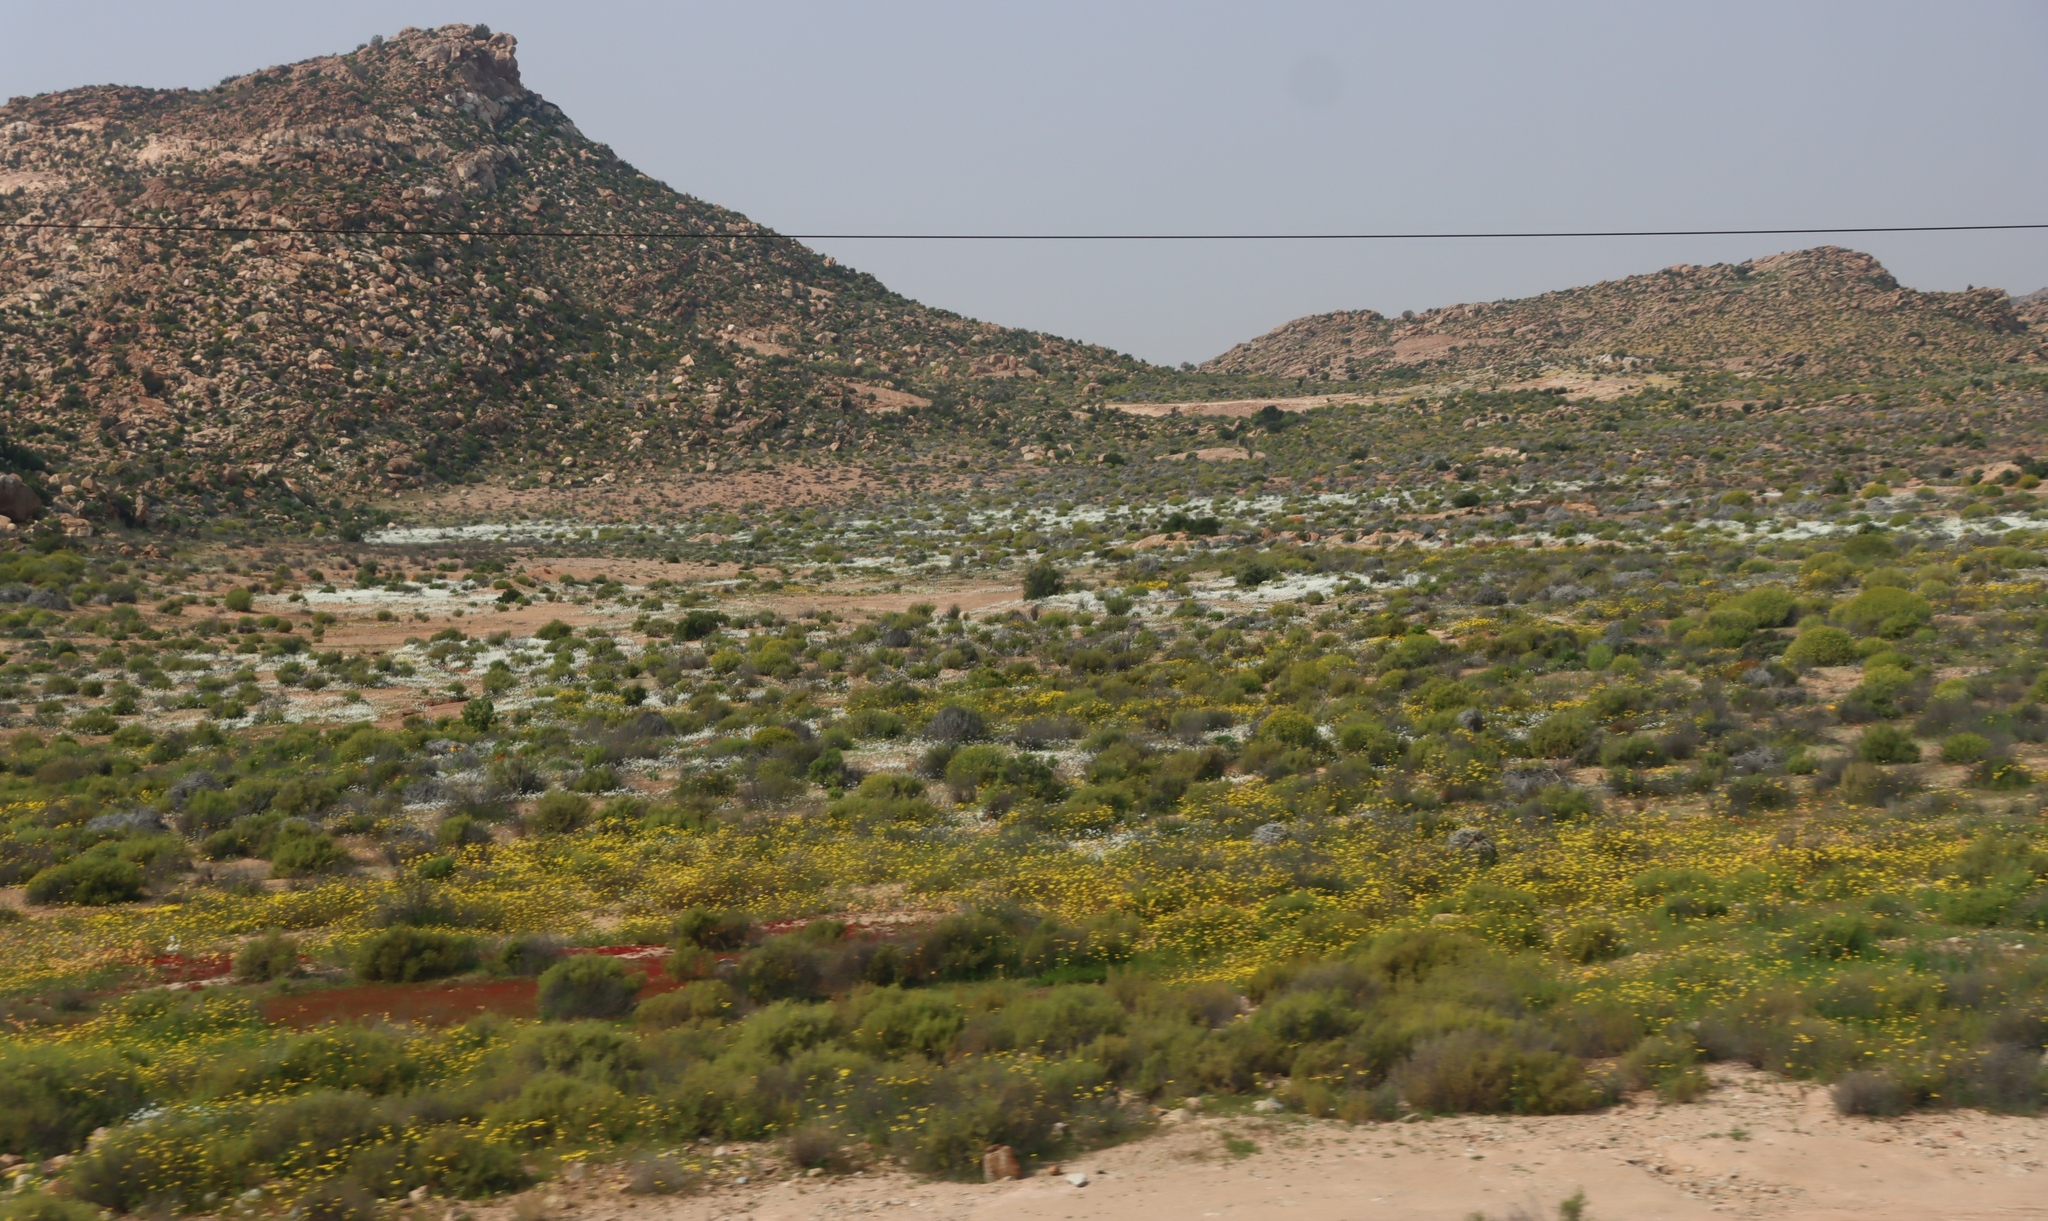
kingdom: Plantae
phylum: Tracheophyta
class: Magnoliopsida
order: Brassicales
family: Brassicaceae
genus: Heliophila
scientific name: Heliophila variabilis
